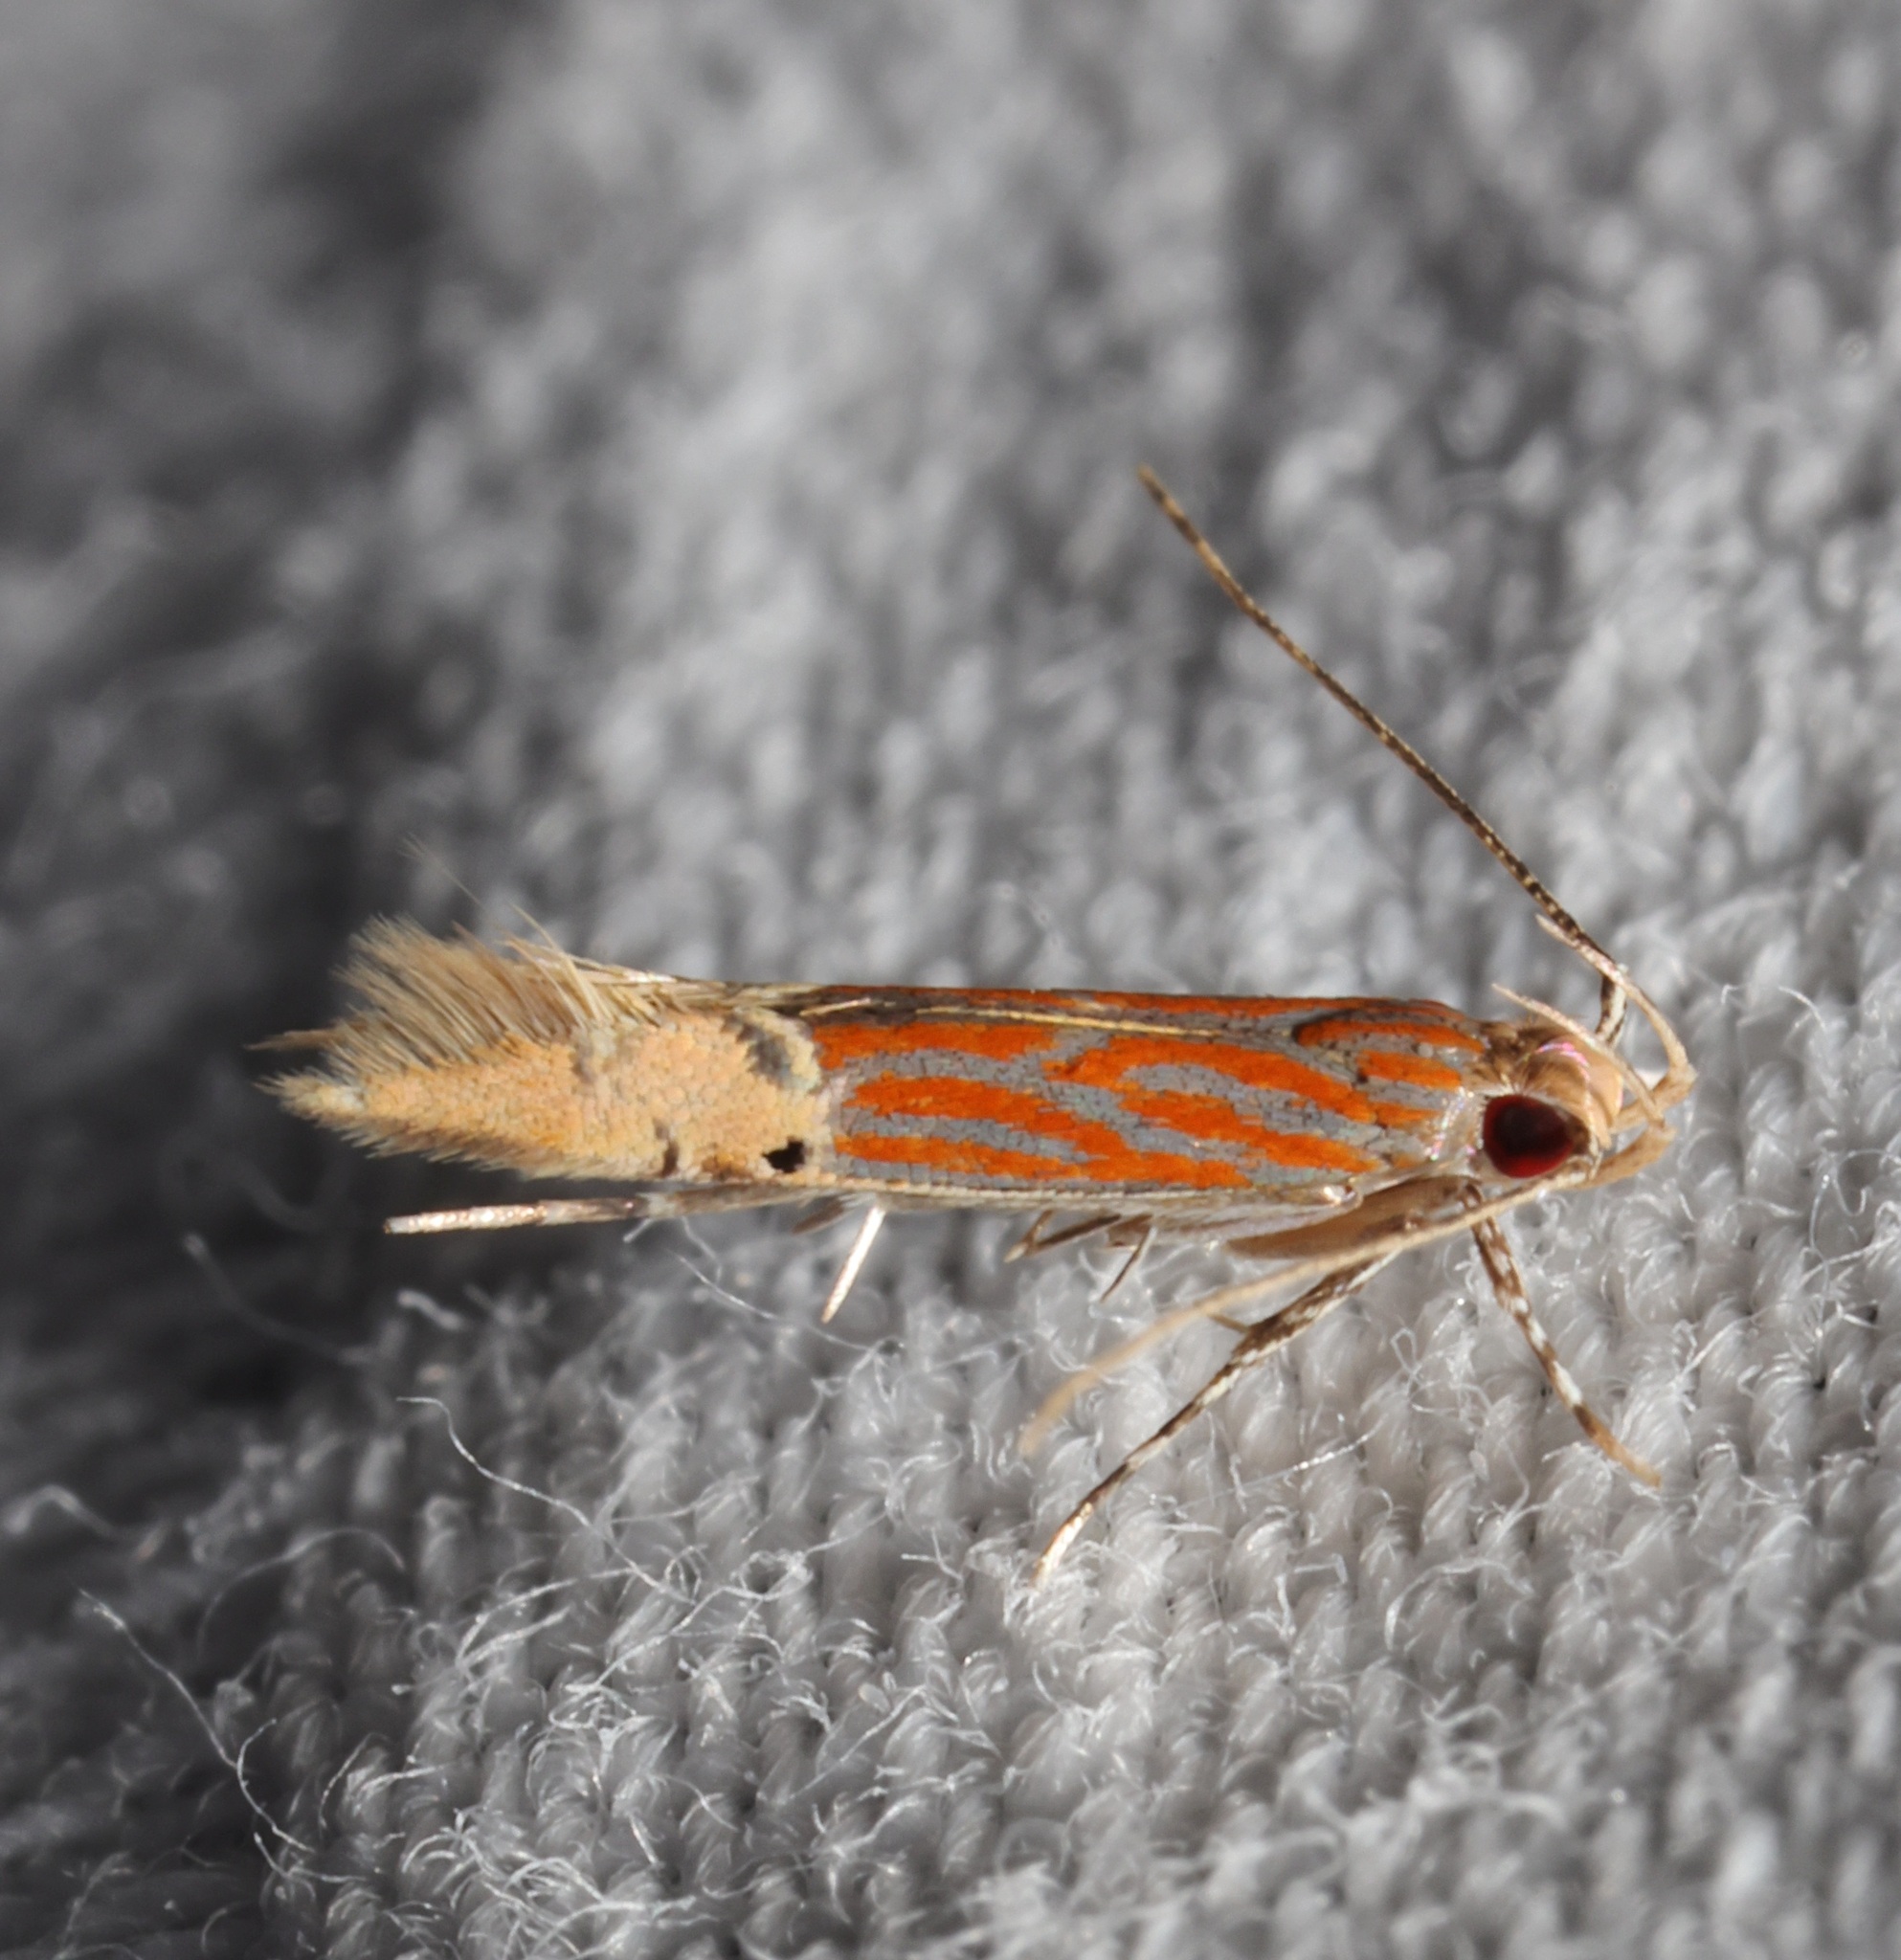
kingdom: Animalia
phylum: Arthropoda
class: Insecta
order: Lepidoptera
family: Cosmopterigidae
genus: Labdia
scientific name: Labdia semicoccinea
